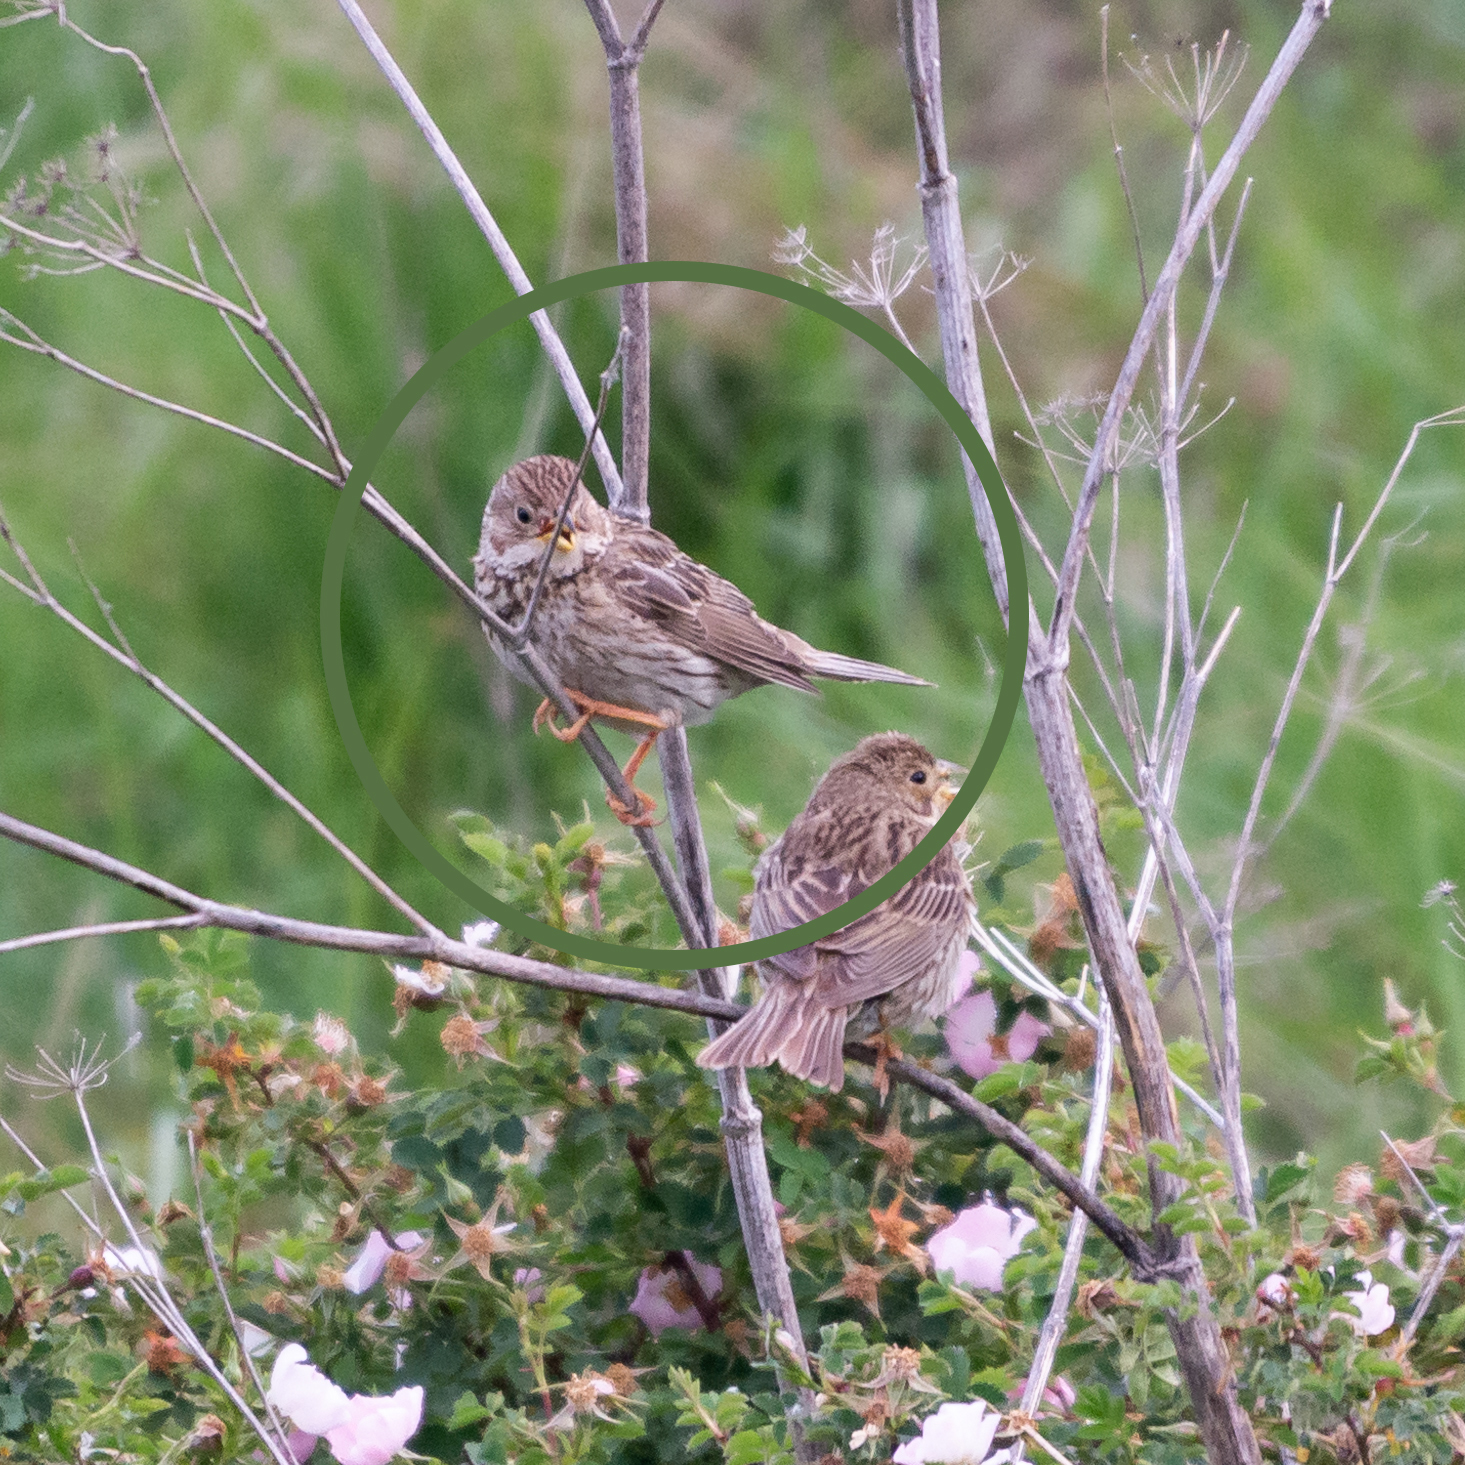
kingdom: Animalia
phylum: Chordata
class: Aves
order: Passeriformes
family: Emberizidae
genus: Emberiza
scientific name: Emberiza calandra
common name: Corn bunting
